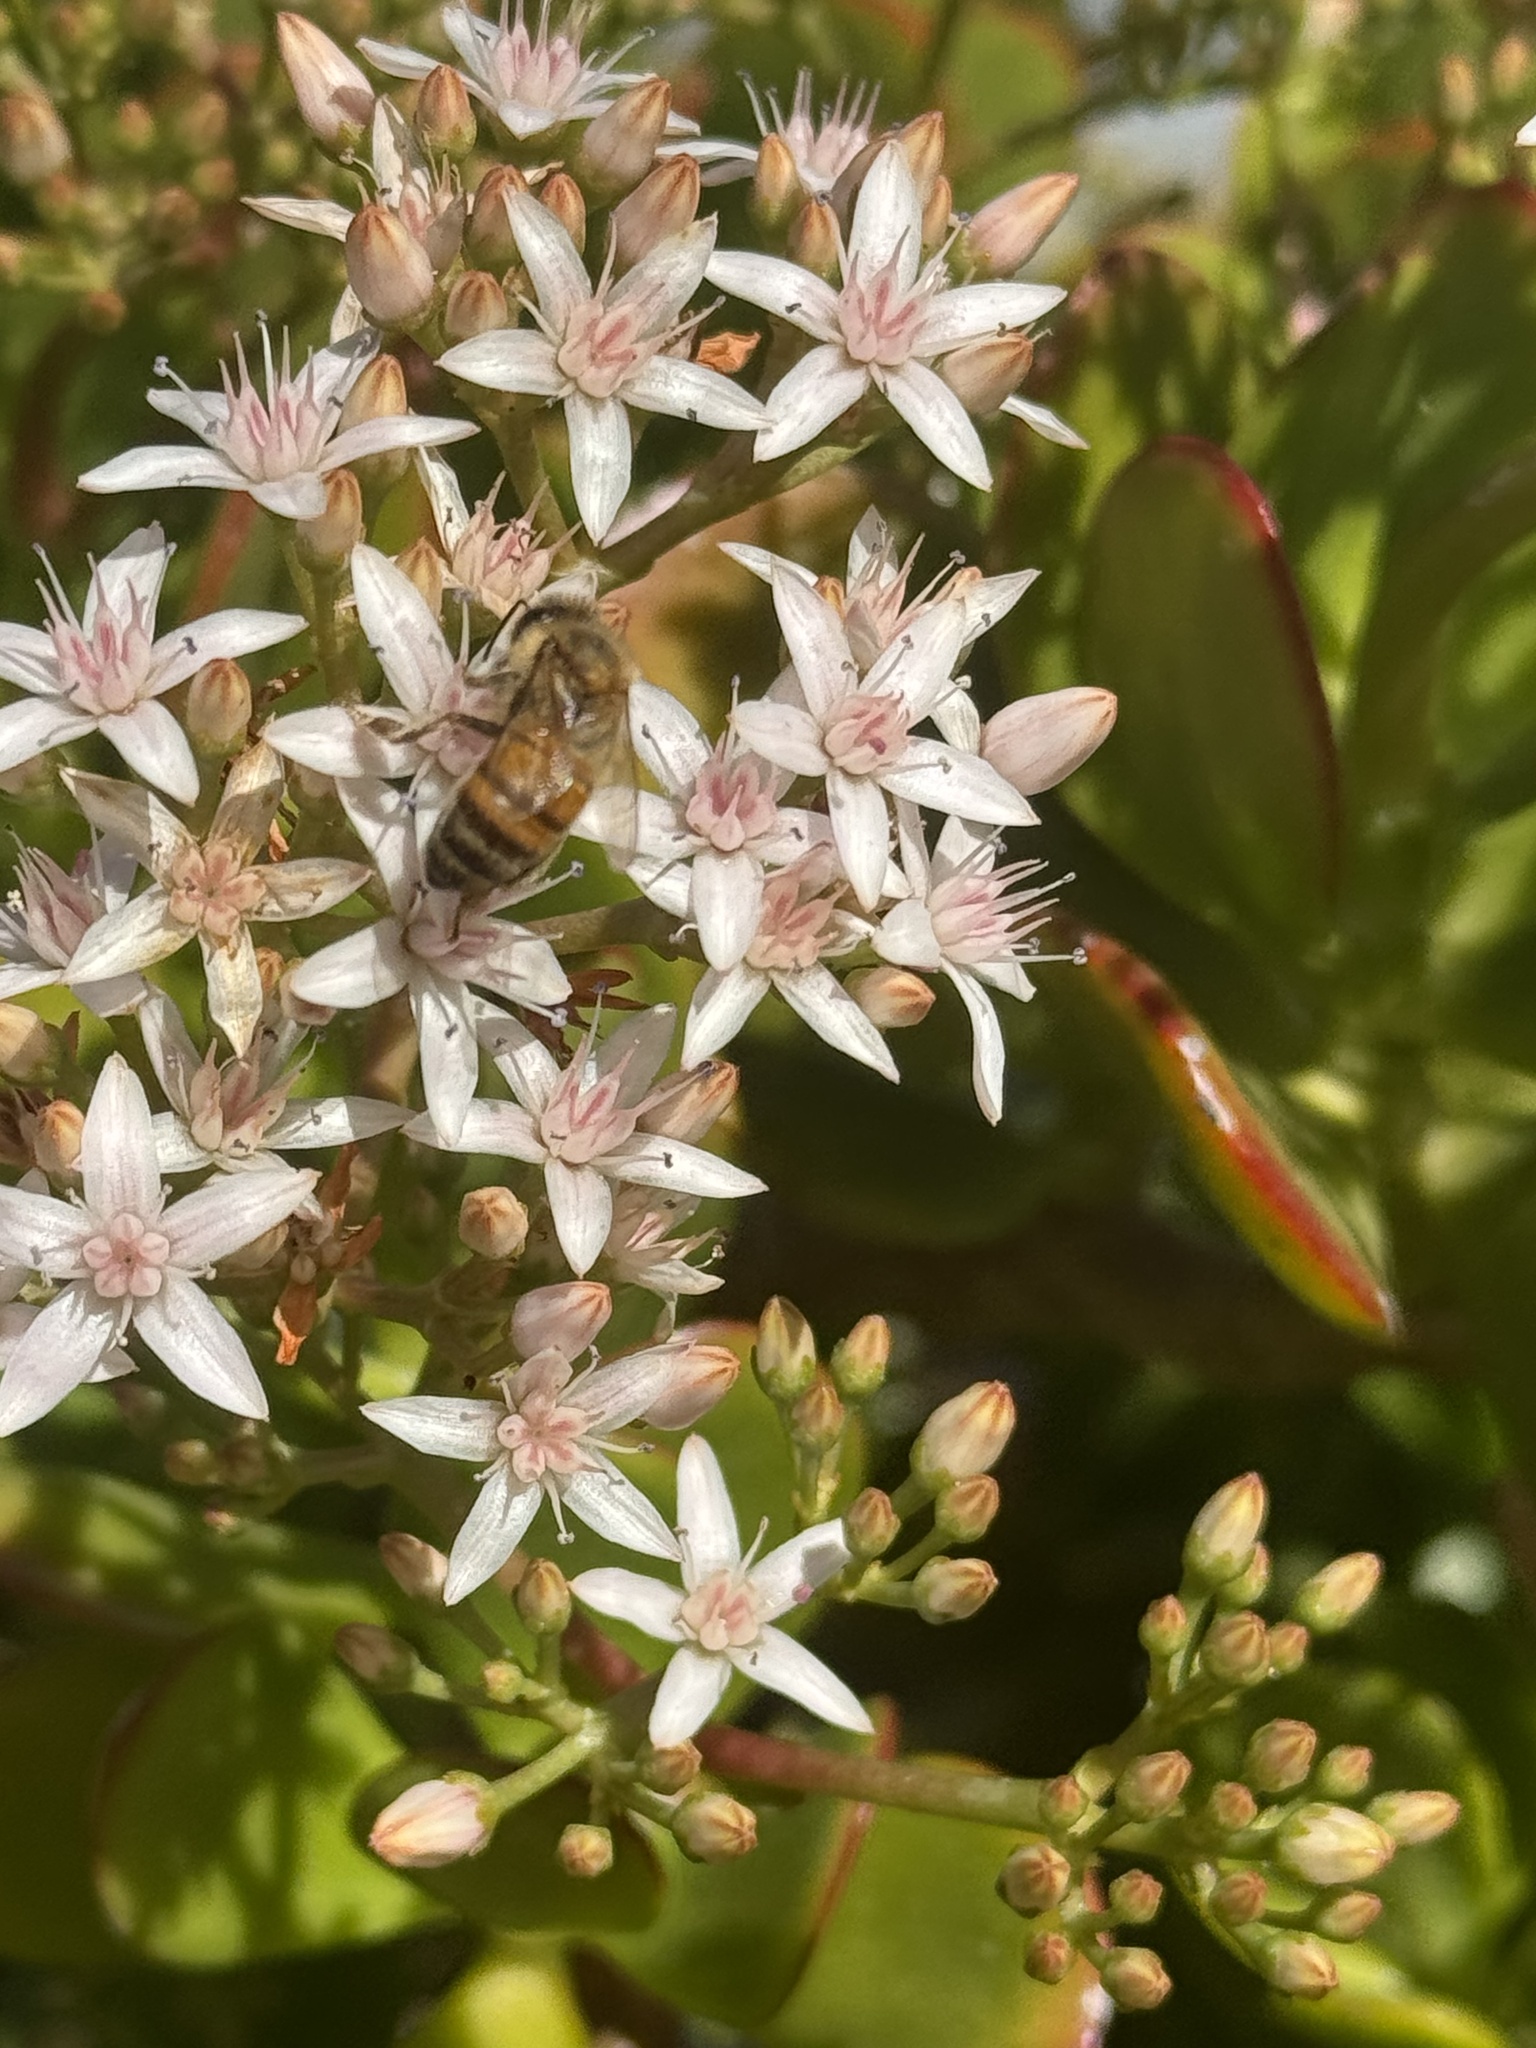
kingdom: Animalia
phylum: Arthropoda
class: Insecta
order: Hymenoptera
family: Apidae
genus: Apis
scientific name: Apis mellifera
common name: Honey bee
